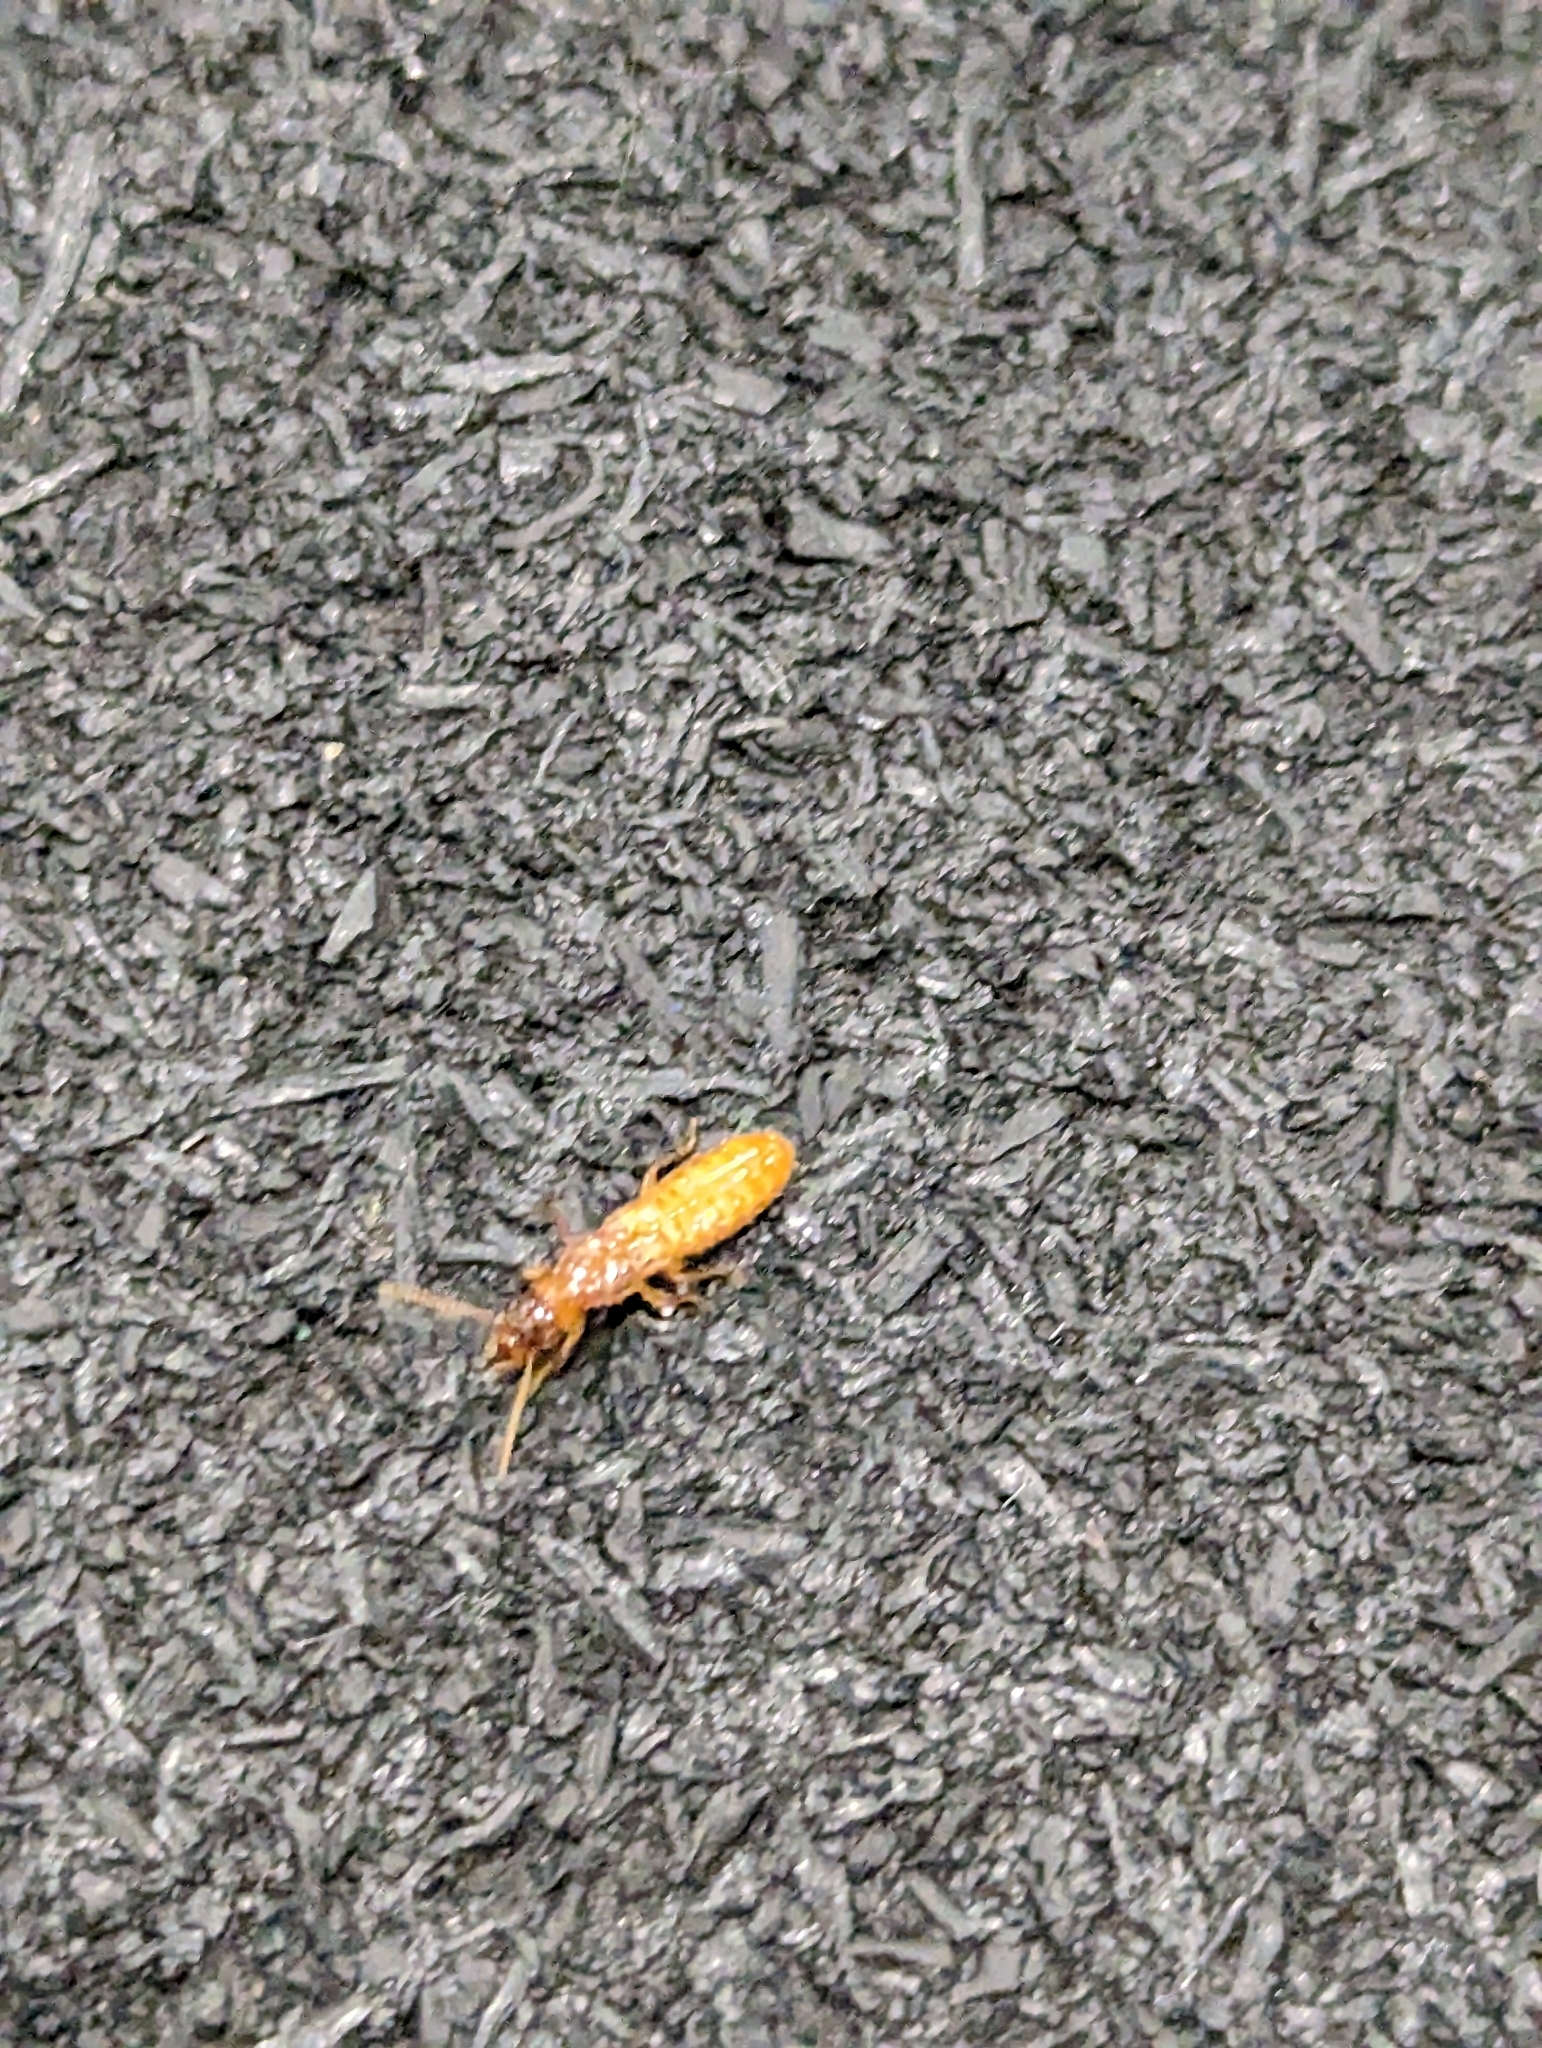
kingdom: Animalia
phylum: Arthropoda
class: Insecta
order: Blattodea
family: Rhinotermitidae
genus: Coptotermes
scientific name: Coptotermes formosanus
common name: Formosan termite
